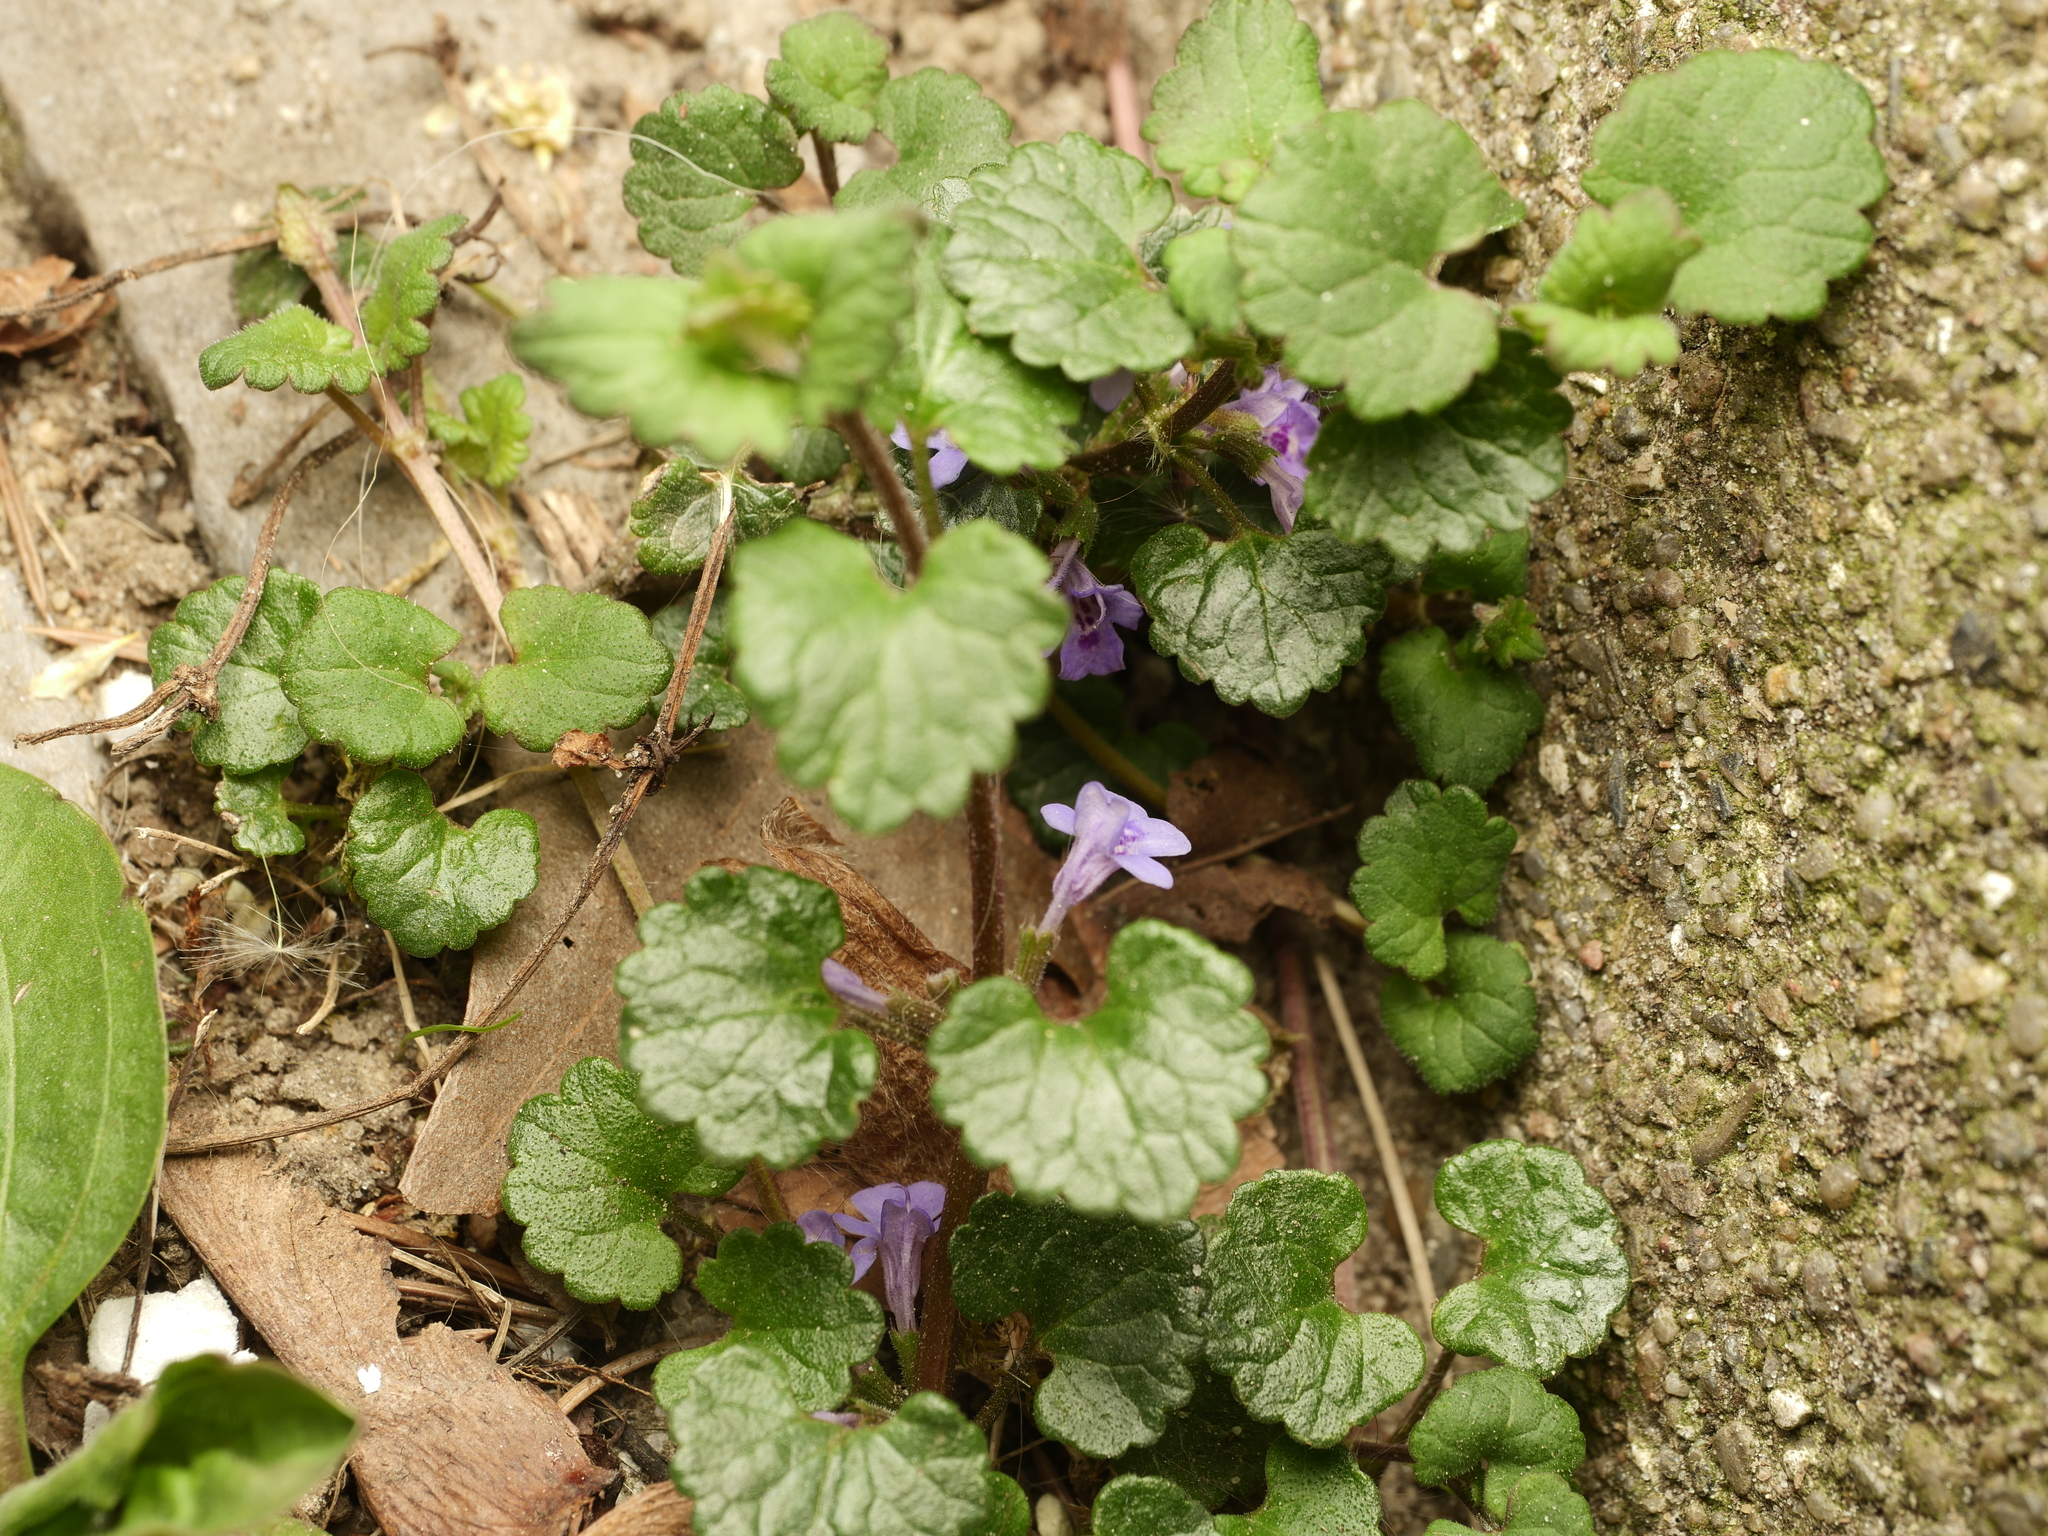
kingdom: Plantae
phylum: Tracheophyta
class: Magnoliopsida
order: Lamiales
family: Lamiaceae
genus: Glechoma
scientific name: Glechoma hederacea
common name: Ground ivy
